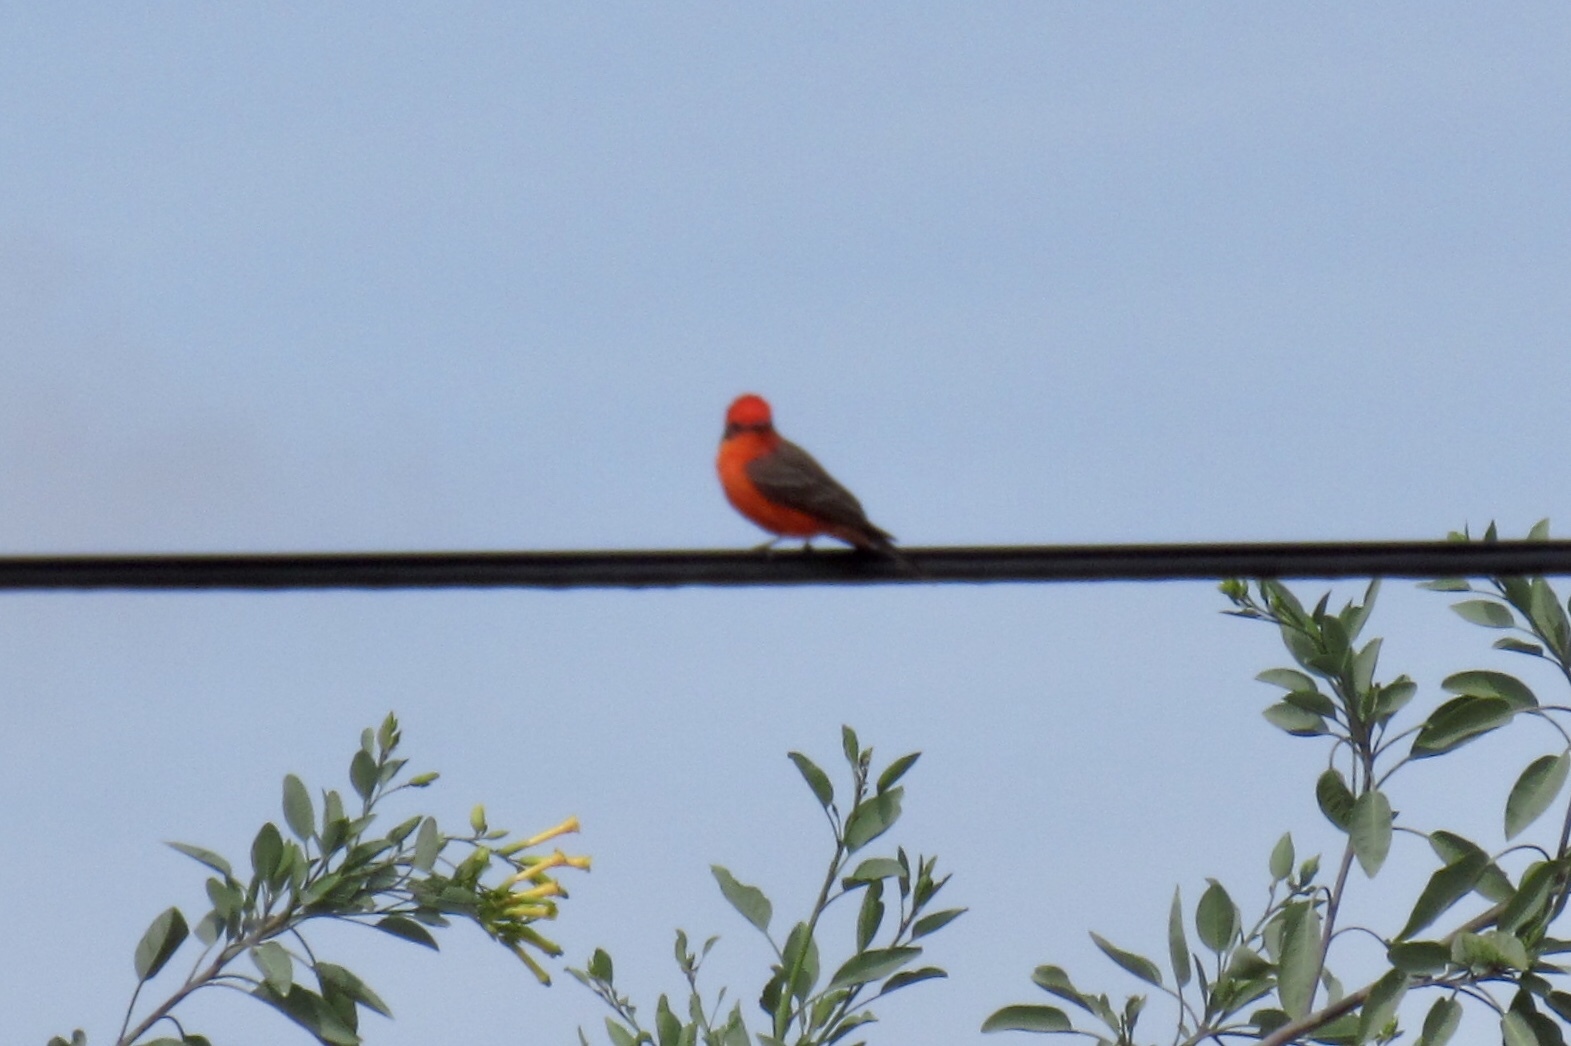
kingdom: Animalia
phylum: Chordata
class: Aves
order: Passeriformes
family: Tyrannidae
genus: Pyrocephalus
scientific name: Pyrocephalus rubinus
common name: Vermilion flycatcher
